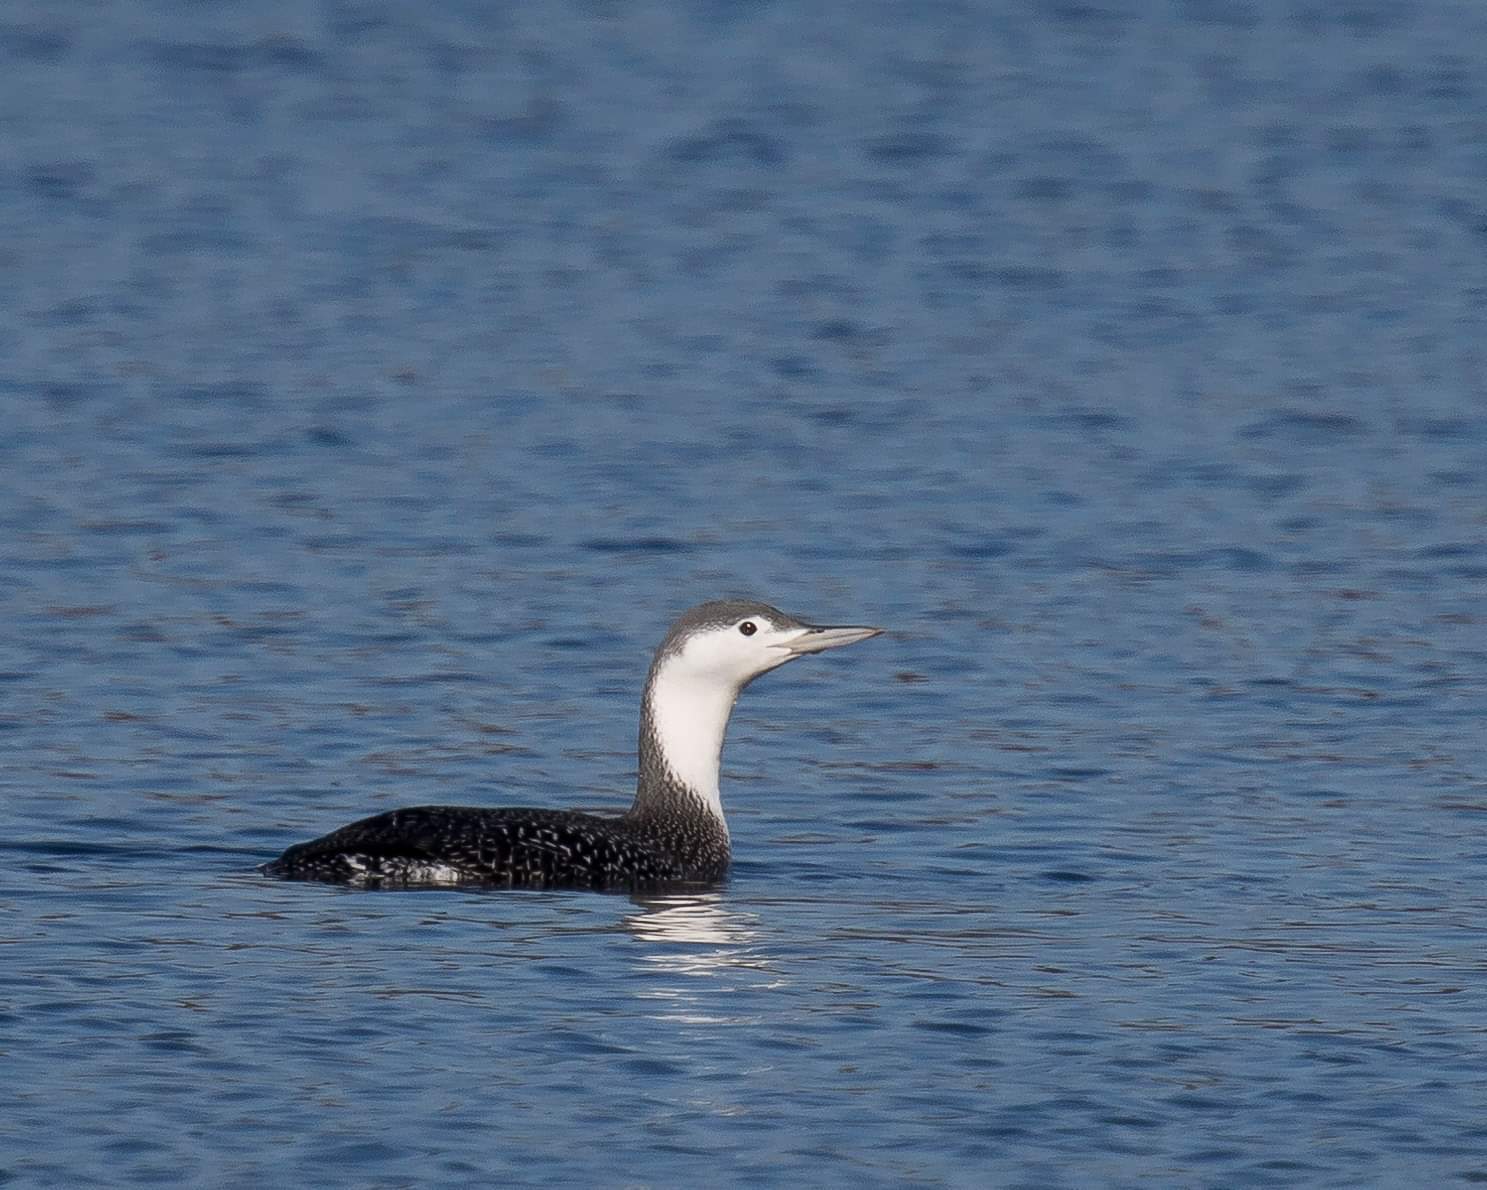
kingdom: Animalia
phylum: Chordata
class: Aves
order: Gaviiformes
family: Gaviidae
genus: Gavia
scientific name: Gavia stellata
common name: Red-throated loon
